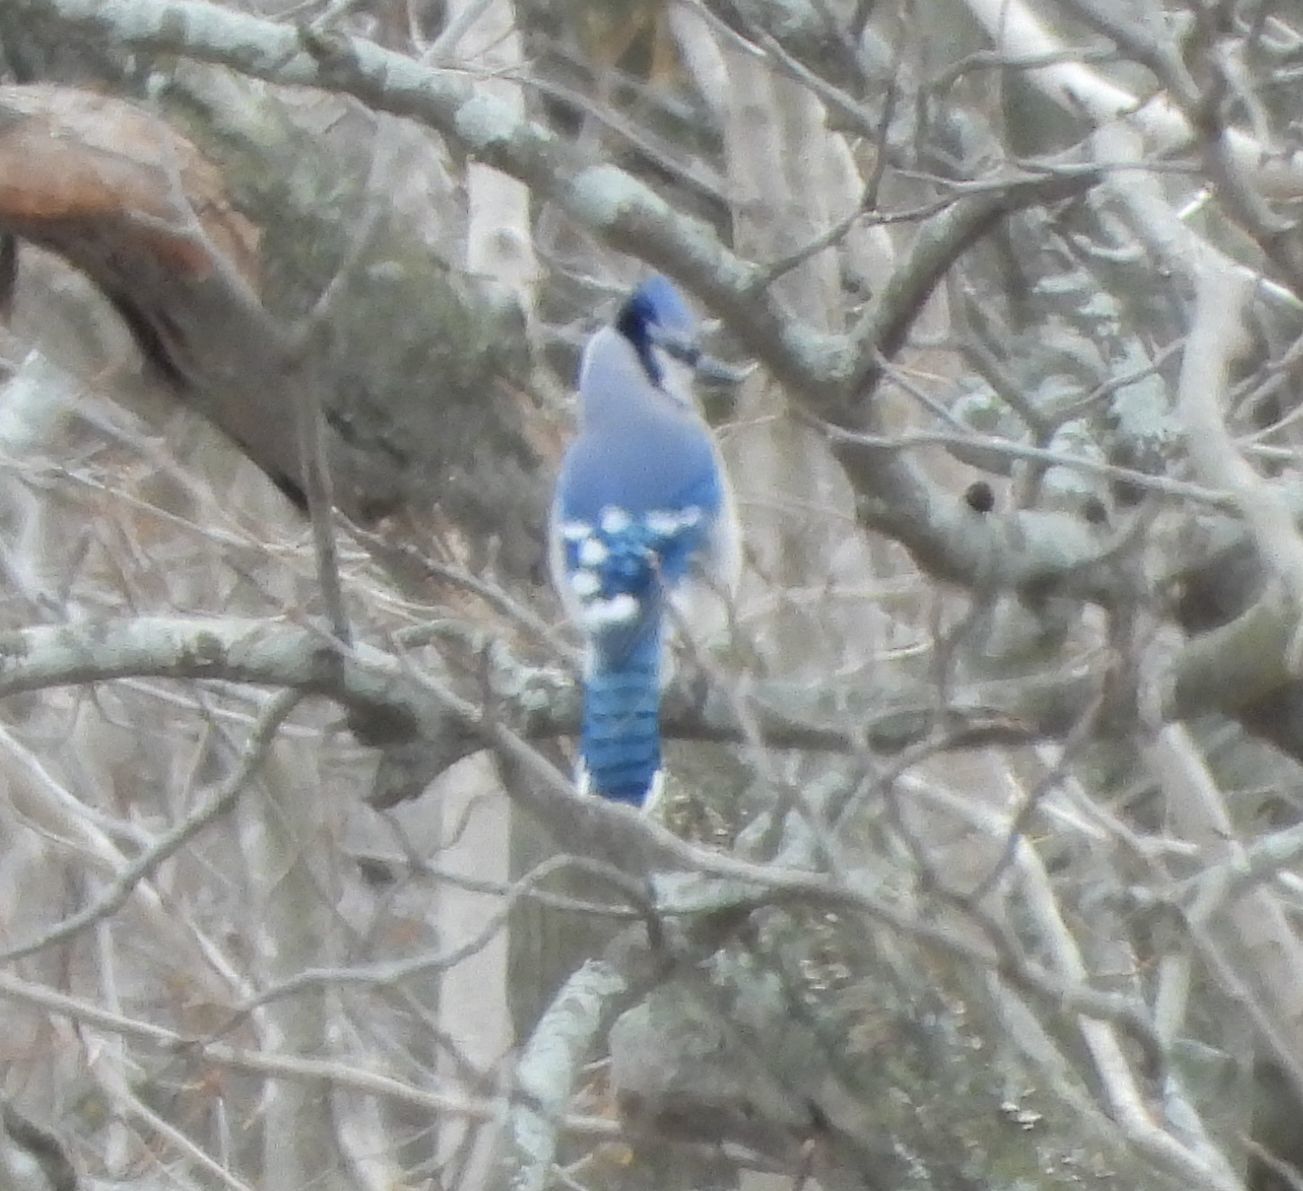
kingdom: Animalia
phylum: Chordata
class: Aves
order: Passeriformes
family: Corvidae
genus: Cyanocitta
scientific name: Cyanocitta cristata
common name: Blue jay
